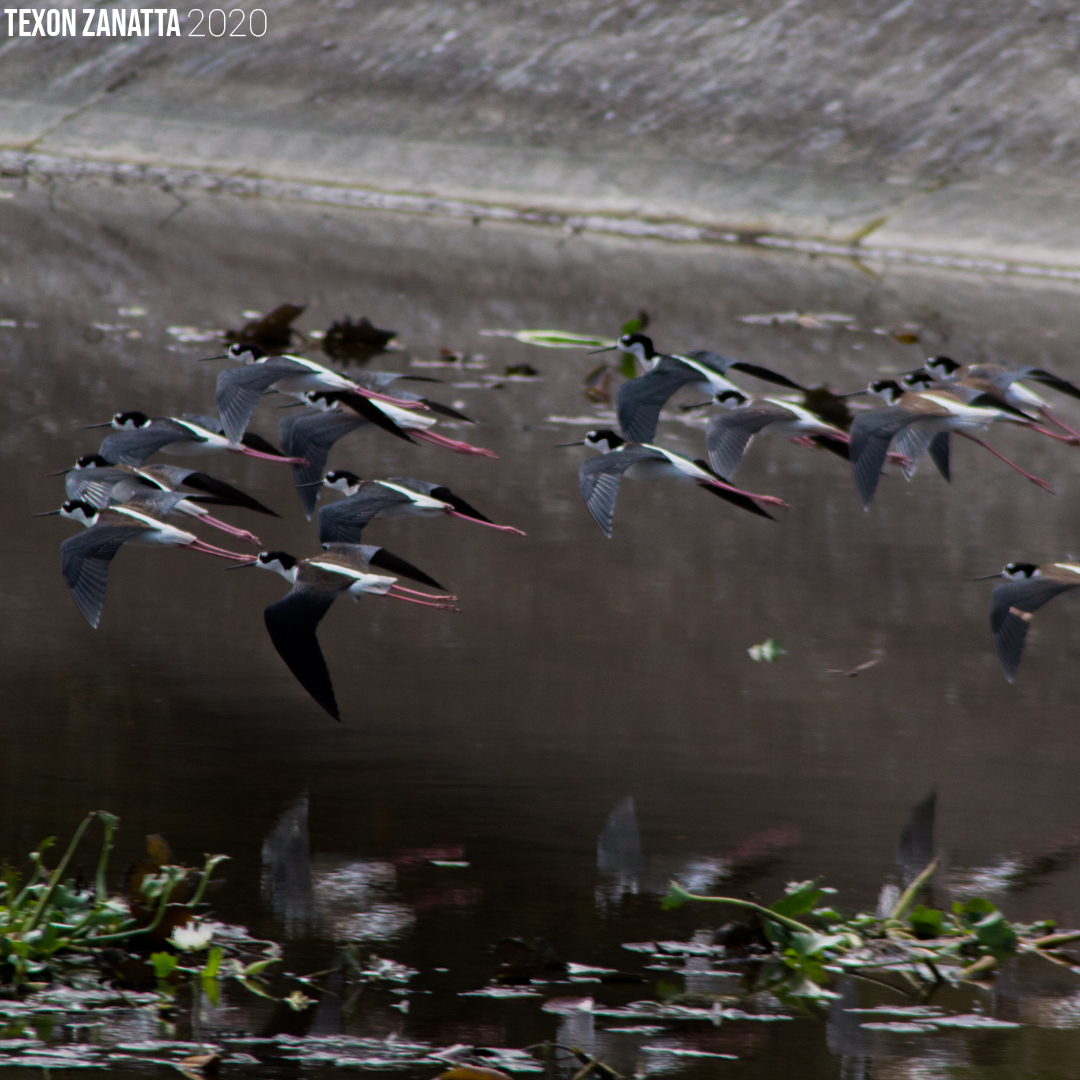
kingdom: Animalia
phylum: Chordata
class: Aves
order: Charadriiformes
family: Recurvirostridae
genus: Himantopus
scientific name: Himantopus mexicanus
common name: Black-necked stilt
